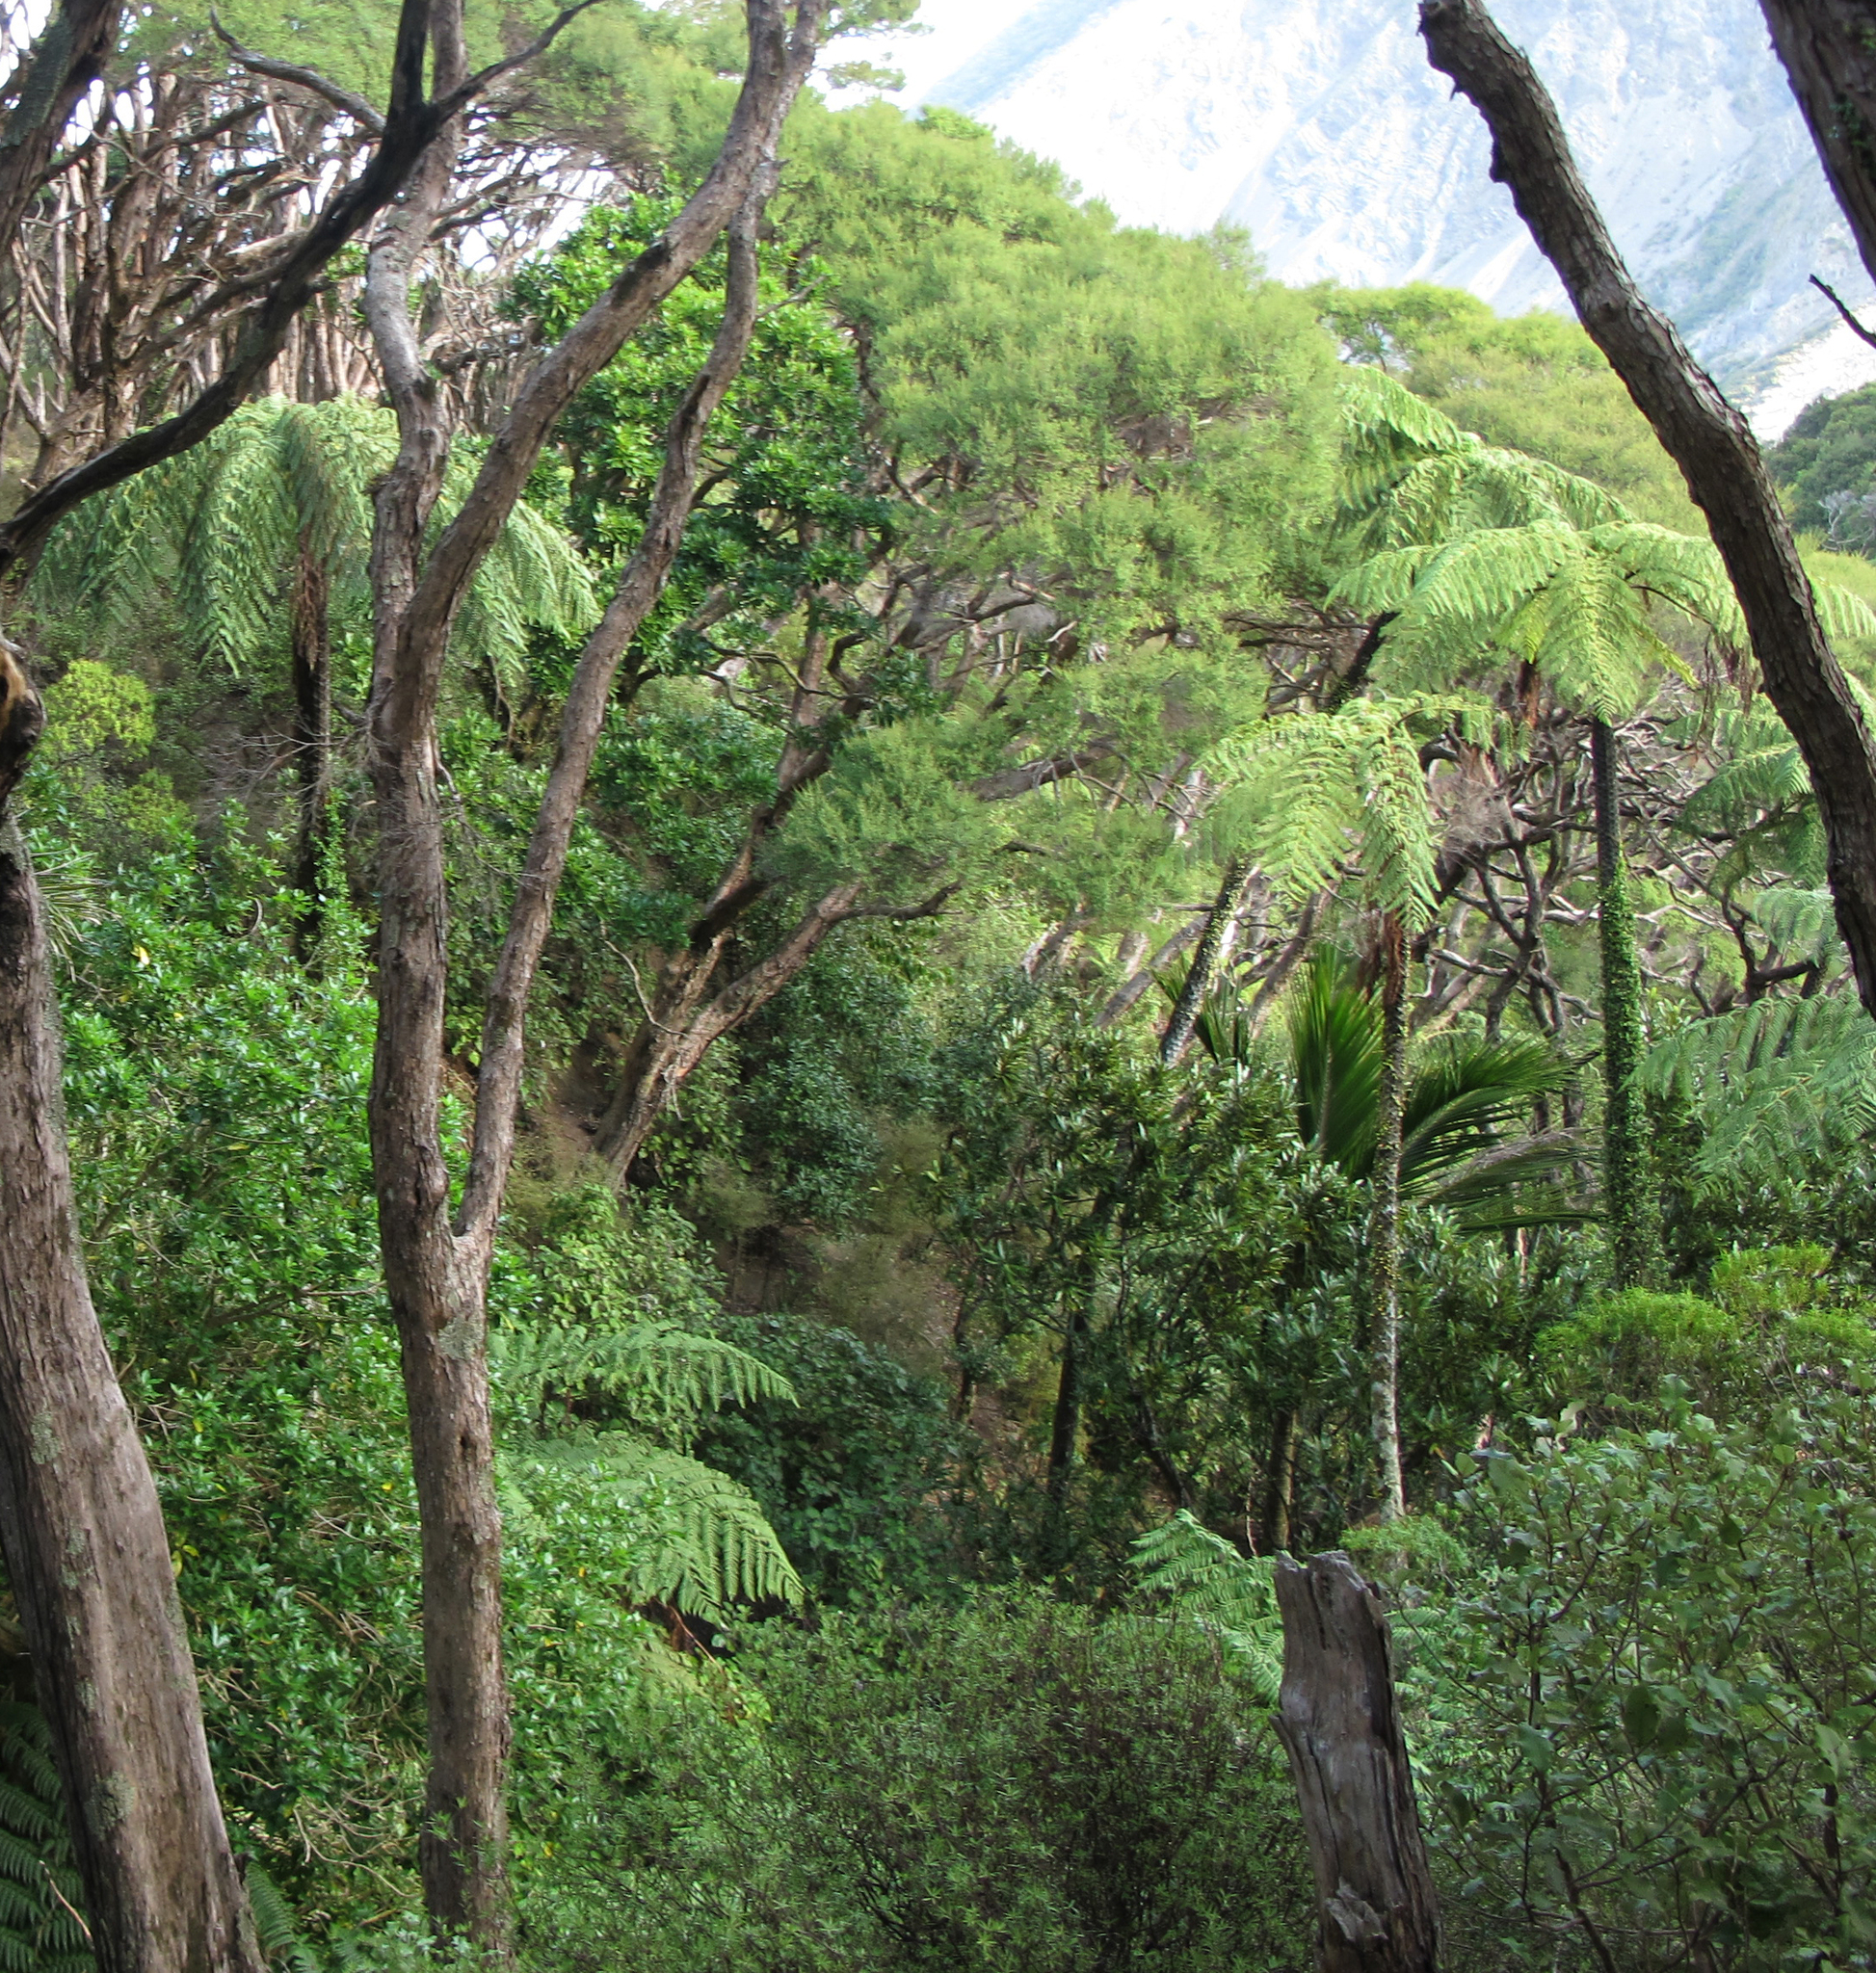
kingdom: Plantae
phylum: Tracheophyta
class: Polypodiopsida
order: Cyatheales
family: Cyatheaceae
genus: Sphaeropteris
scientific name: Sphaeropteris medullaris
